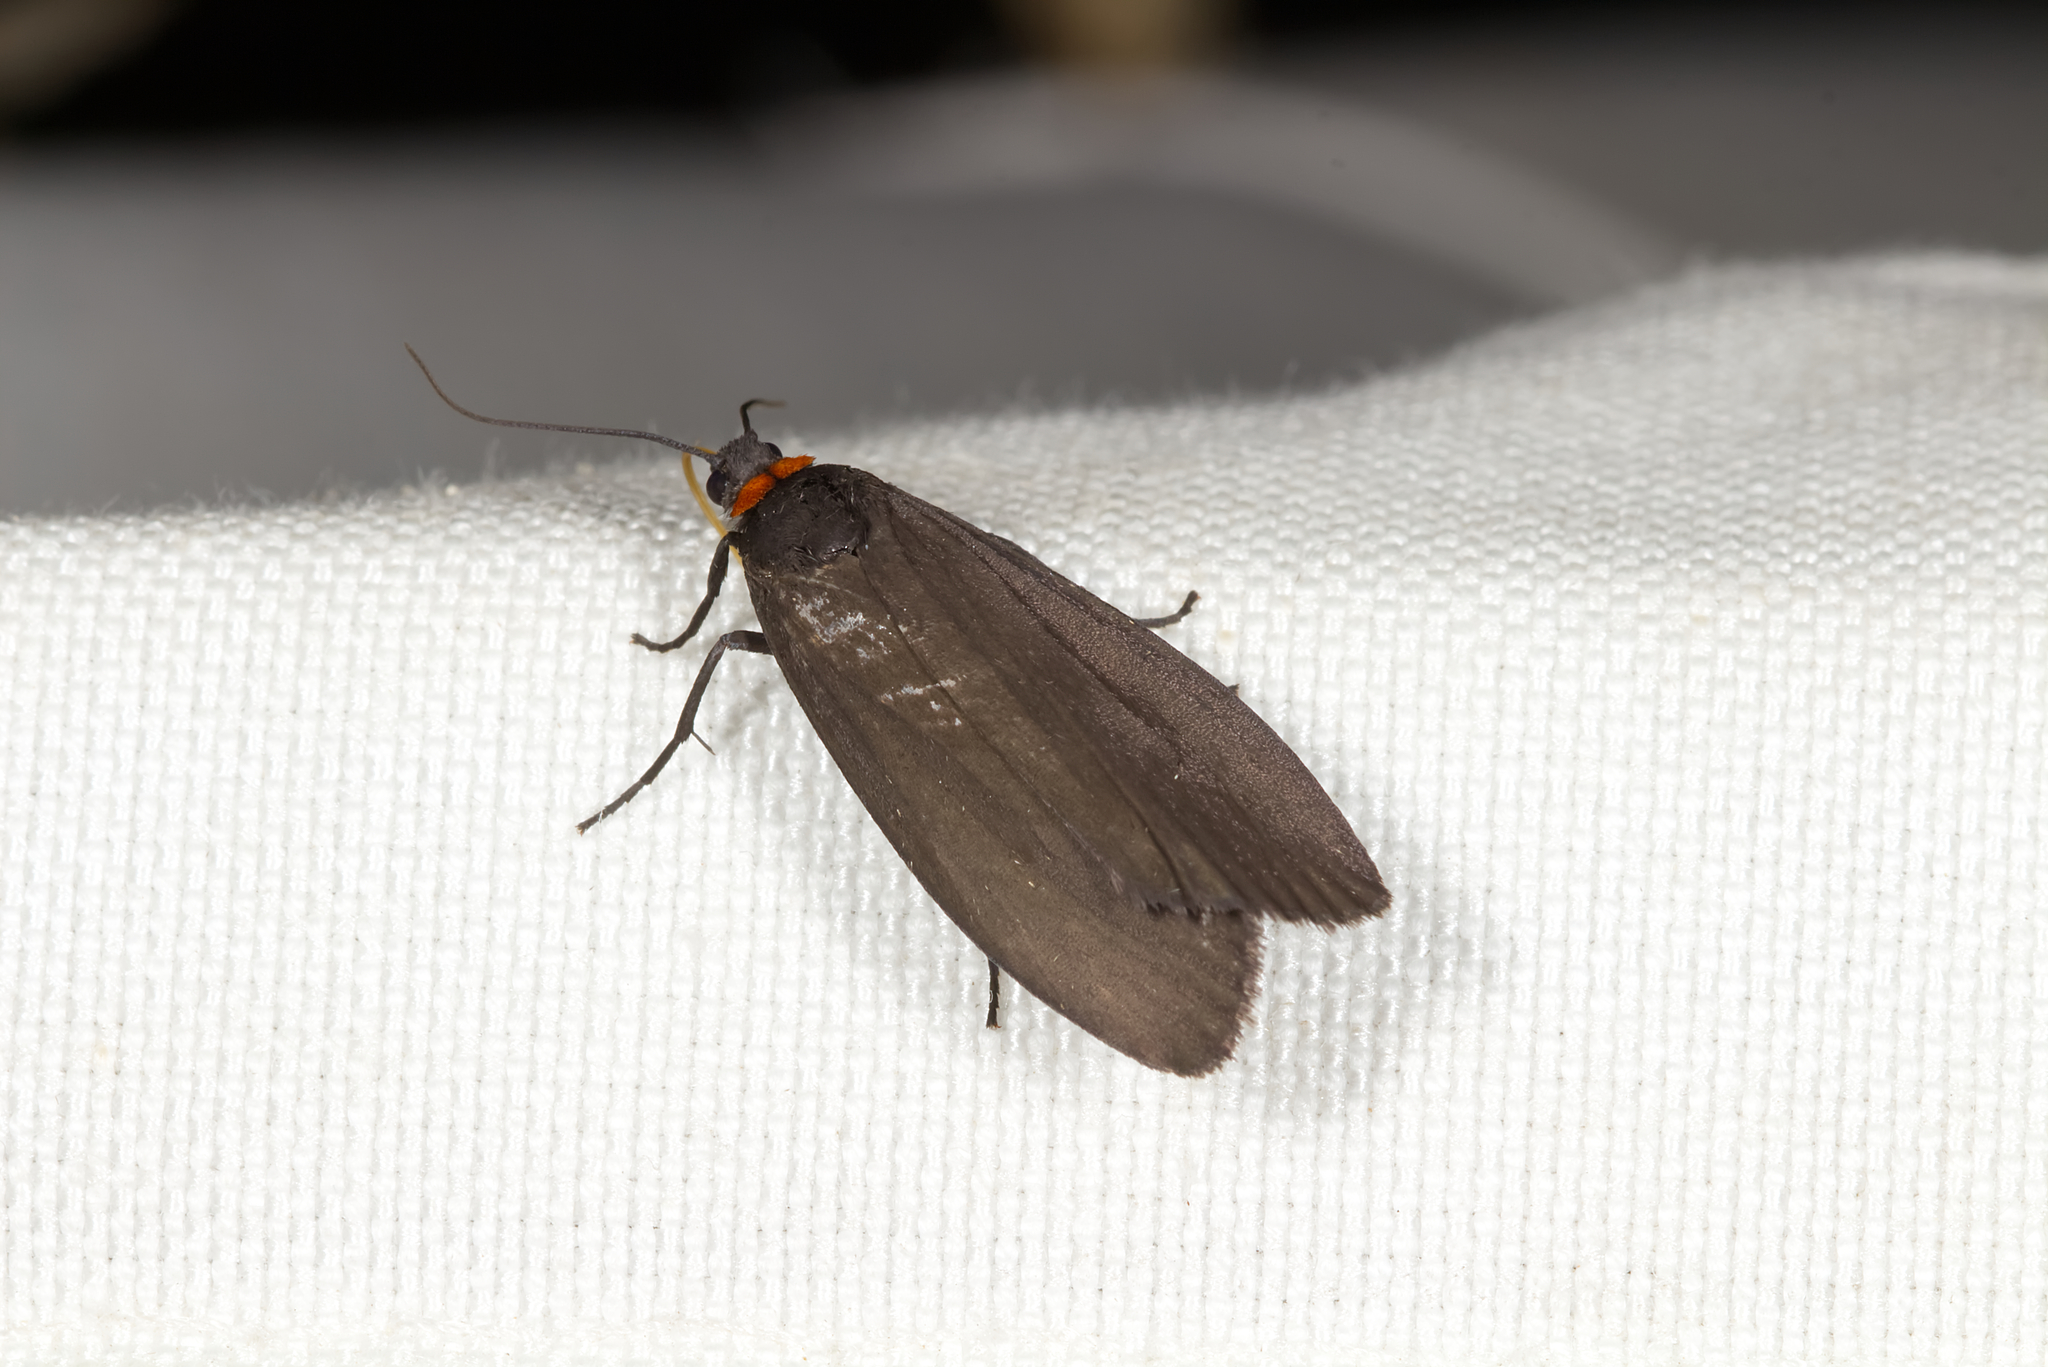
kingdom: Animalia
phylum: Arthropoda
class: Insecta
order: Lepidoptera
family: Erebidae
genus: Atolmis
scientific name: Atolmis rubricollis
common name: Red-necked footman
